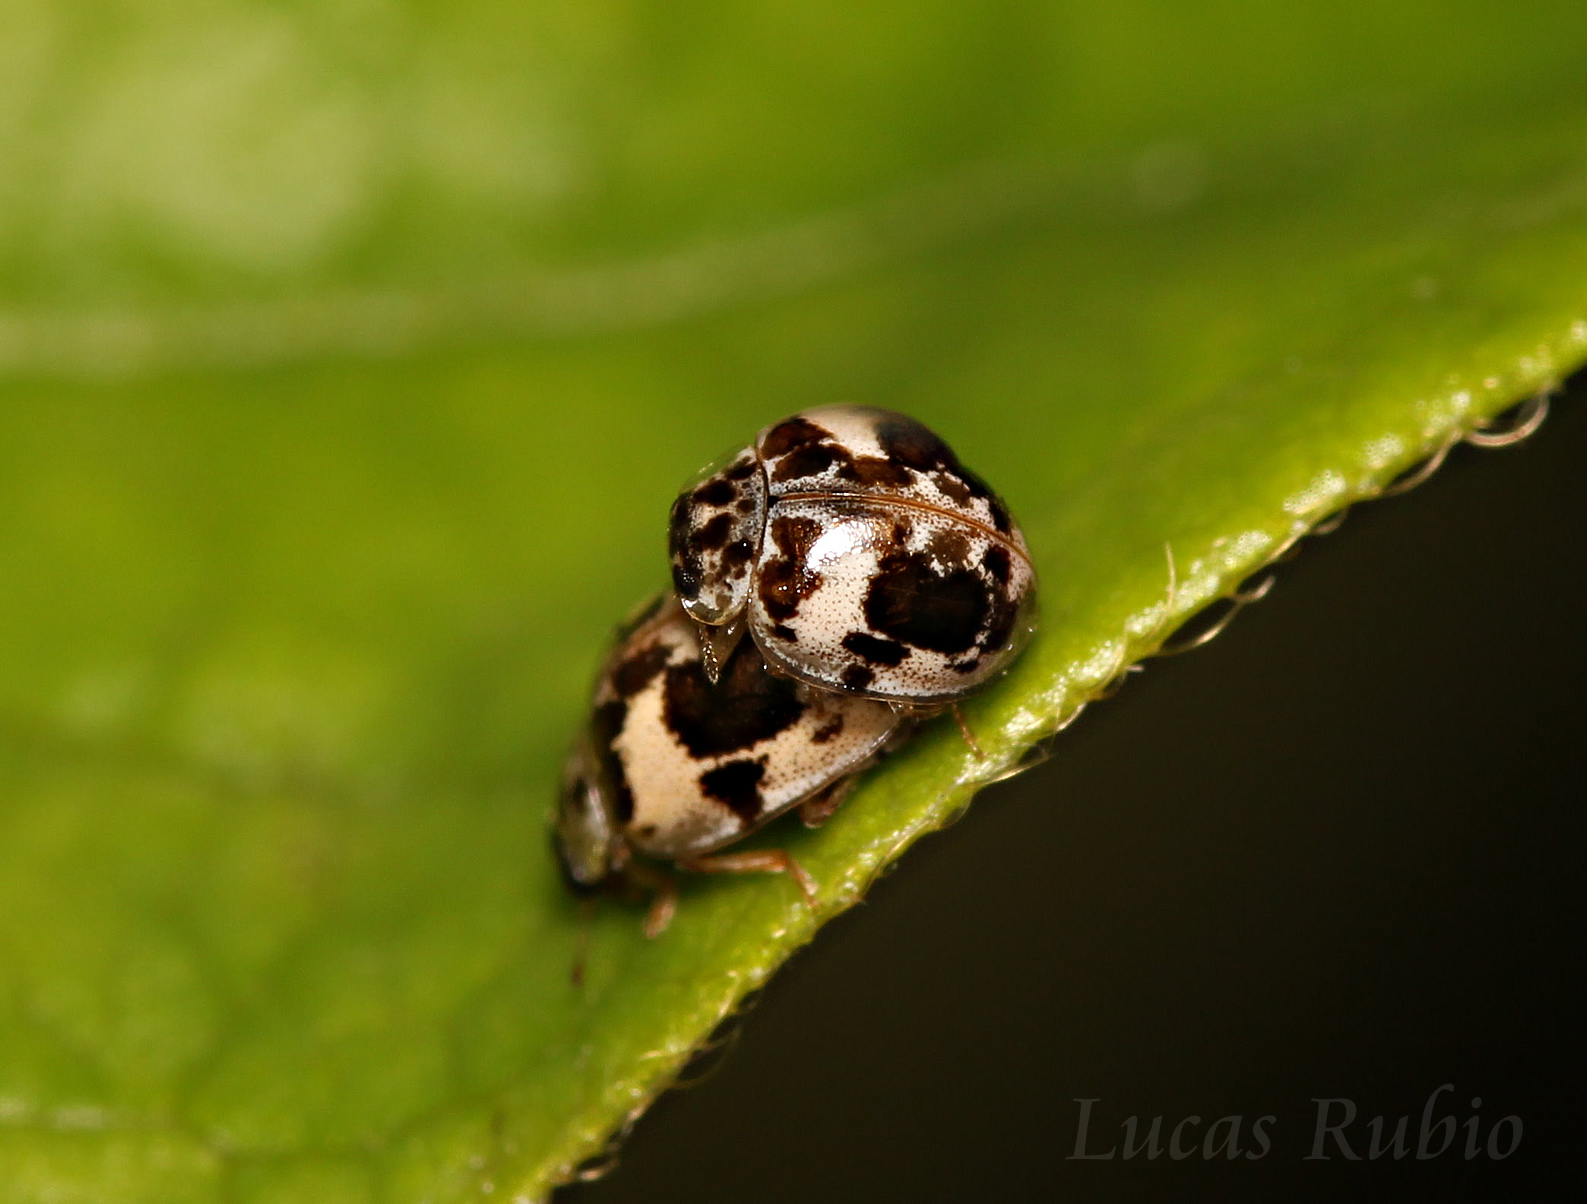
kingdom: Animalia
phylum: Arthropoda
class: Insecta
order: Coleoptera
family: Coccinellidae
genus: Psyllobora
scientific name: Psyllobora
